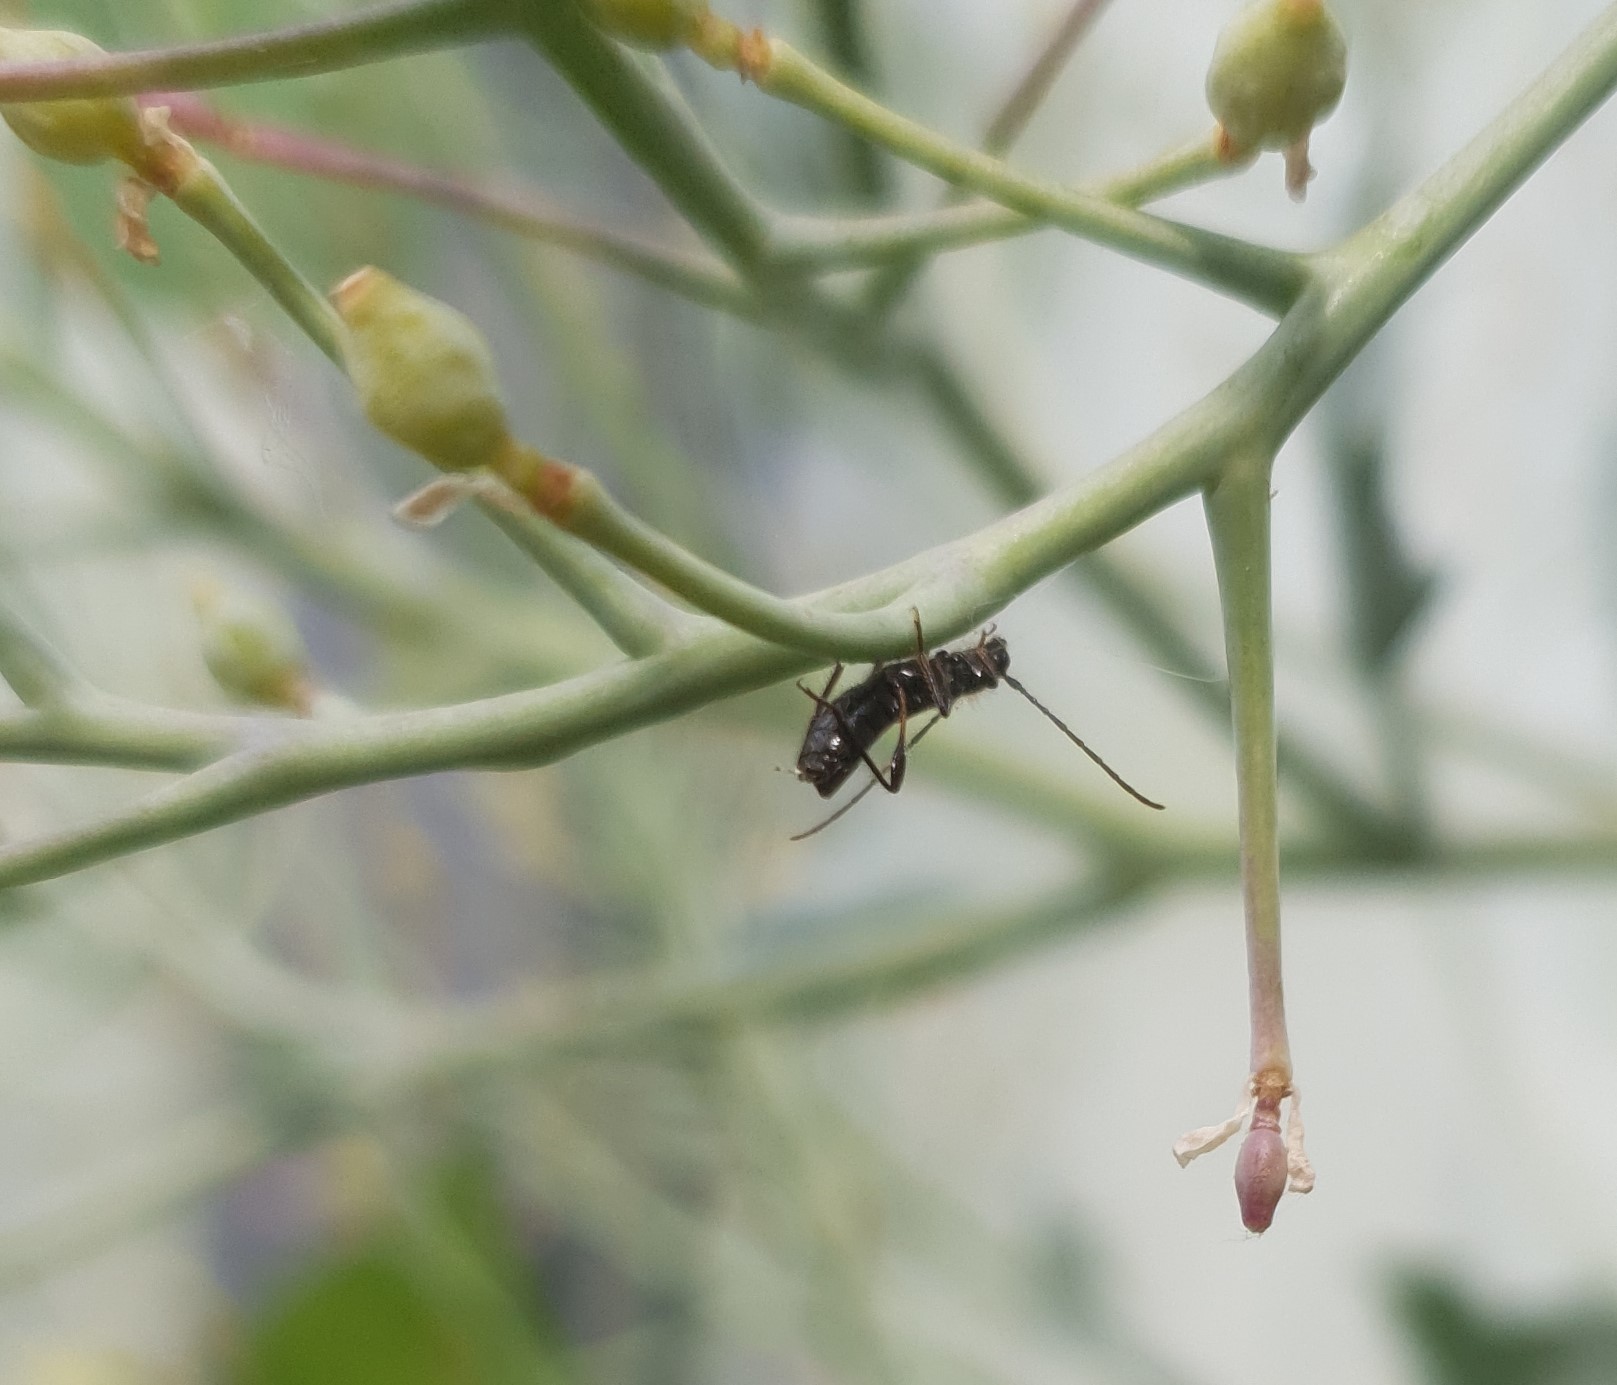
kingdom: Animalia
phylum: Arthropoda
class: Insecta
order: Coleoptera
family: Cerambycidae
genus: Molorchus
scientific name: Molorchus umbellatarum
